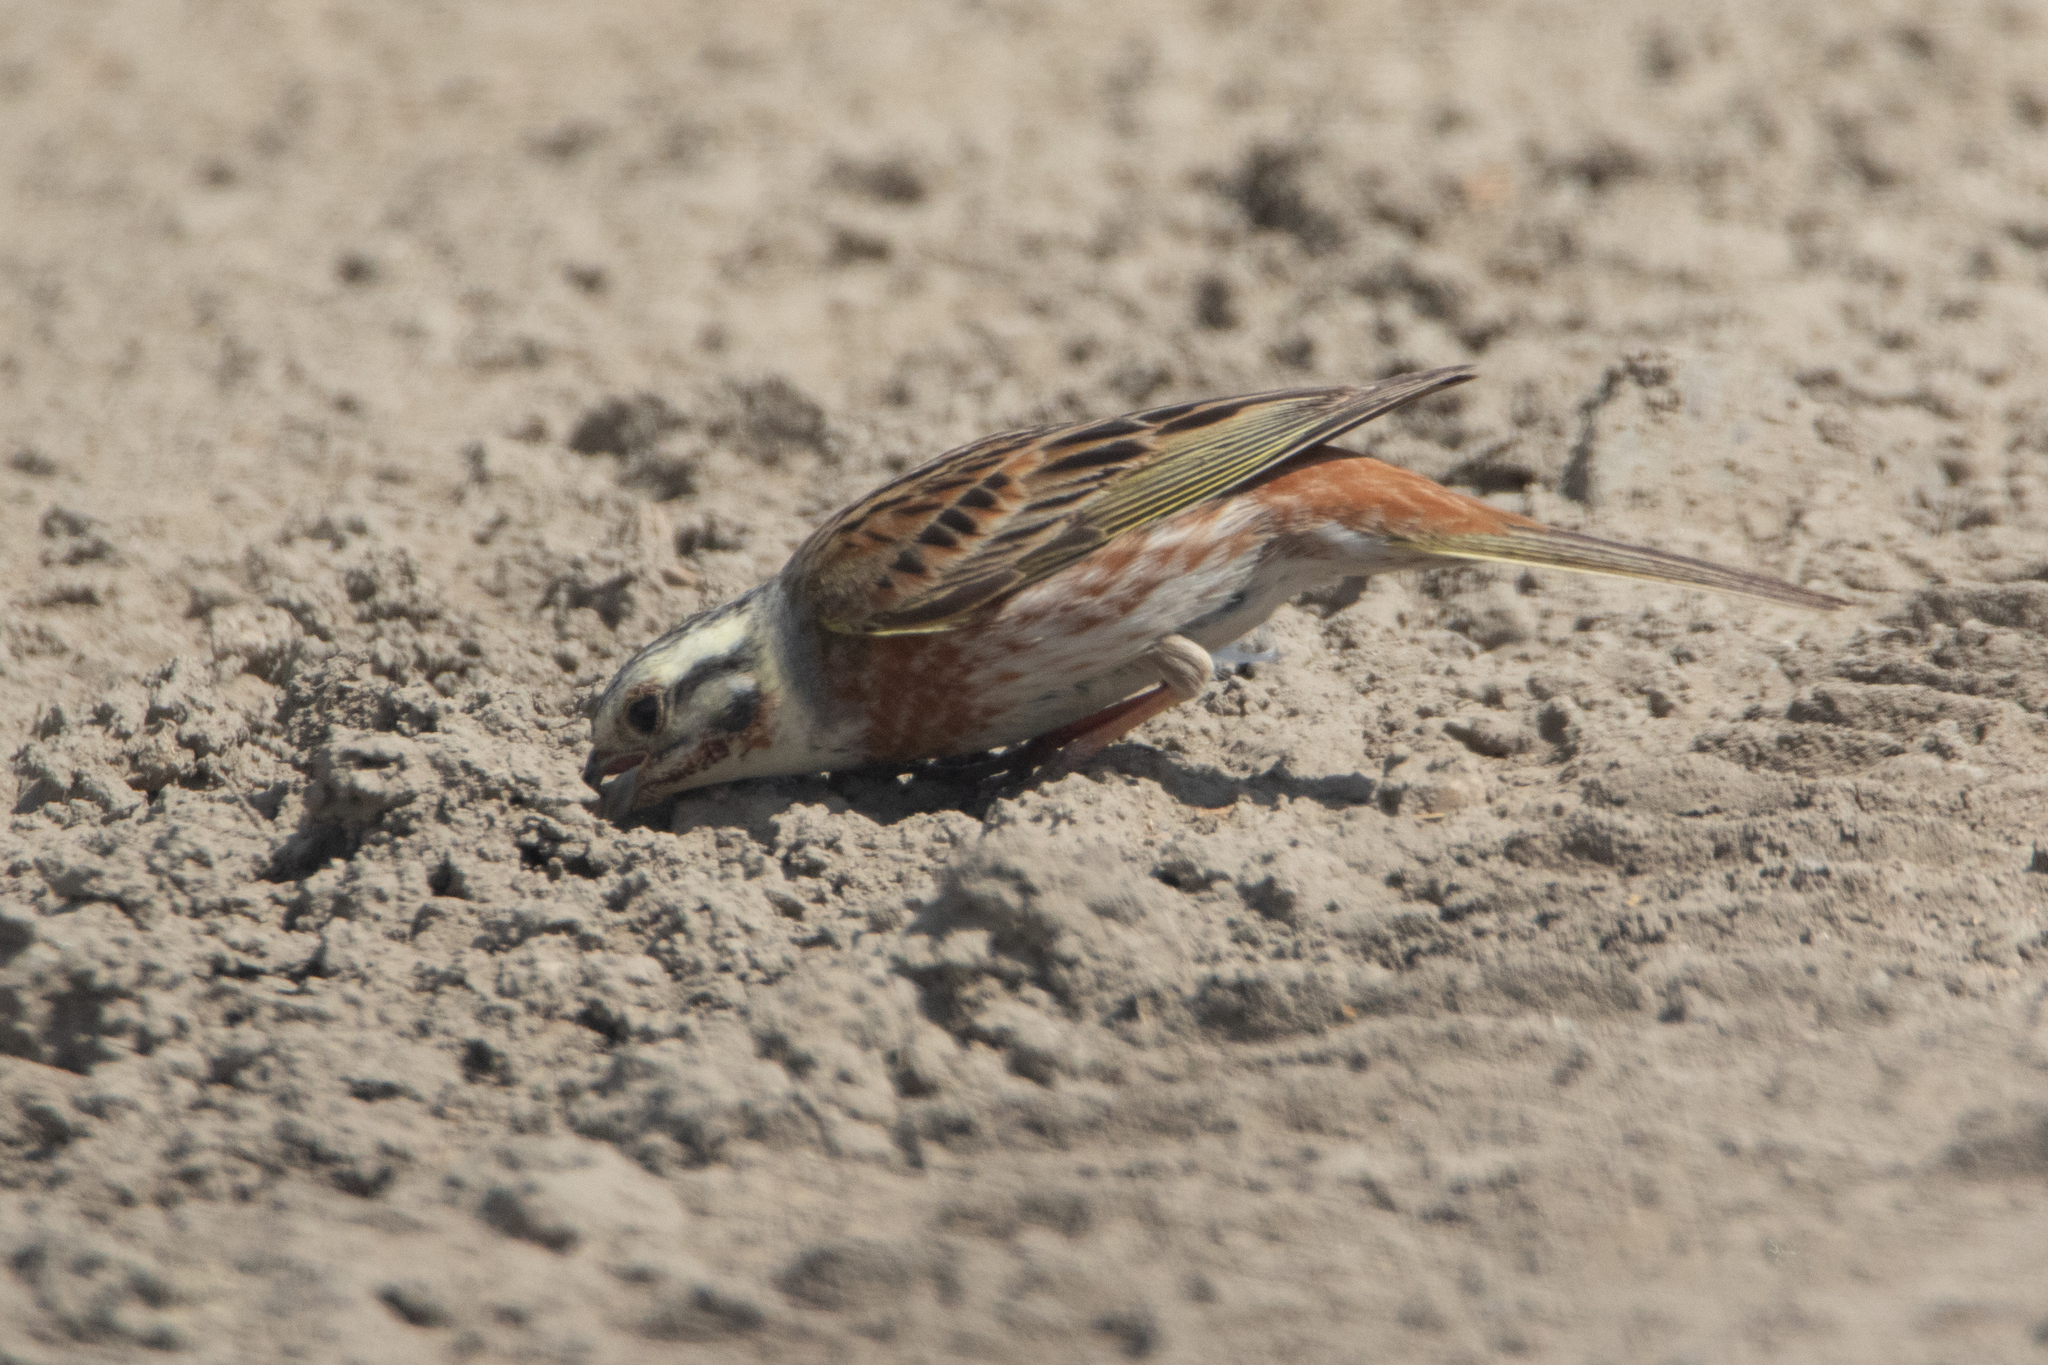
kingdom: Animalia
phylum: Chordata
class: Aves
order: Passeriformes
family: Emberizidae
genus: Emberiza
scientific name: Emberiza
